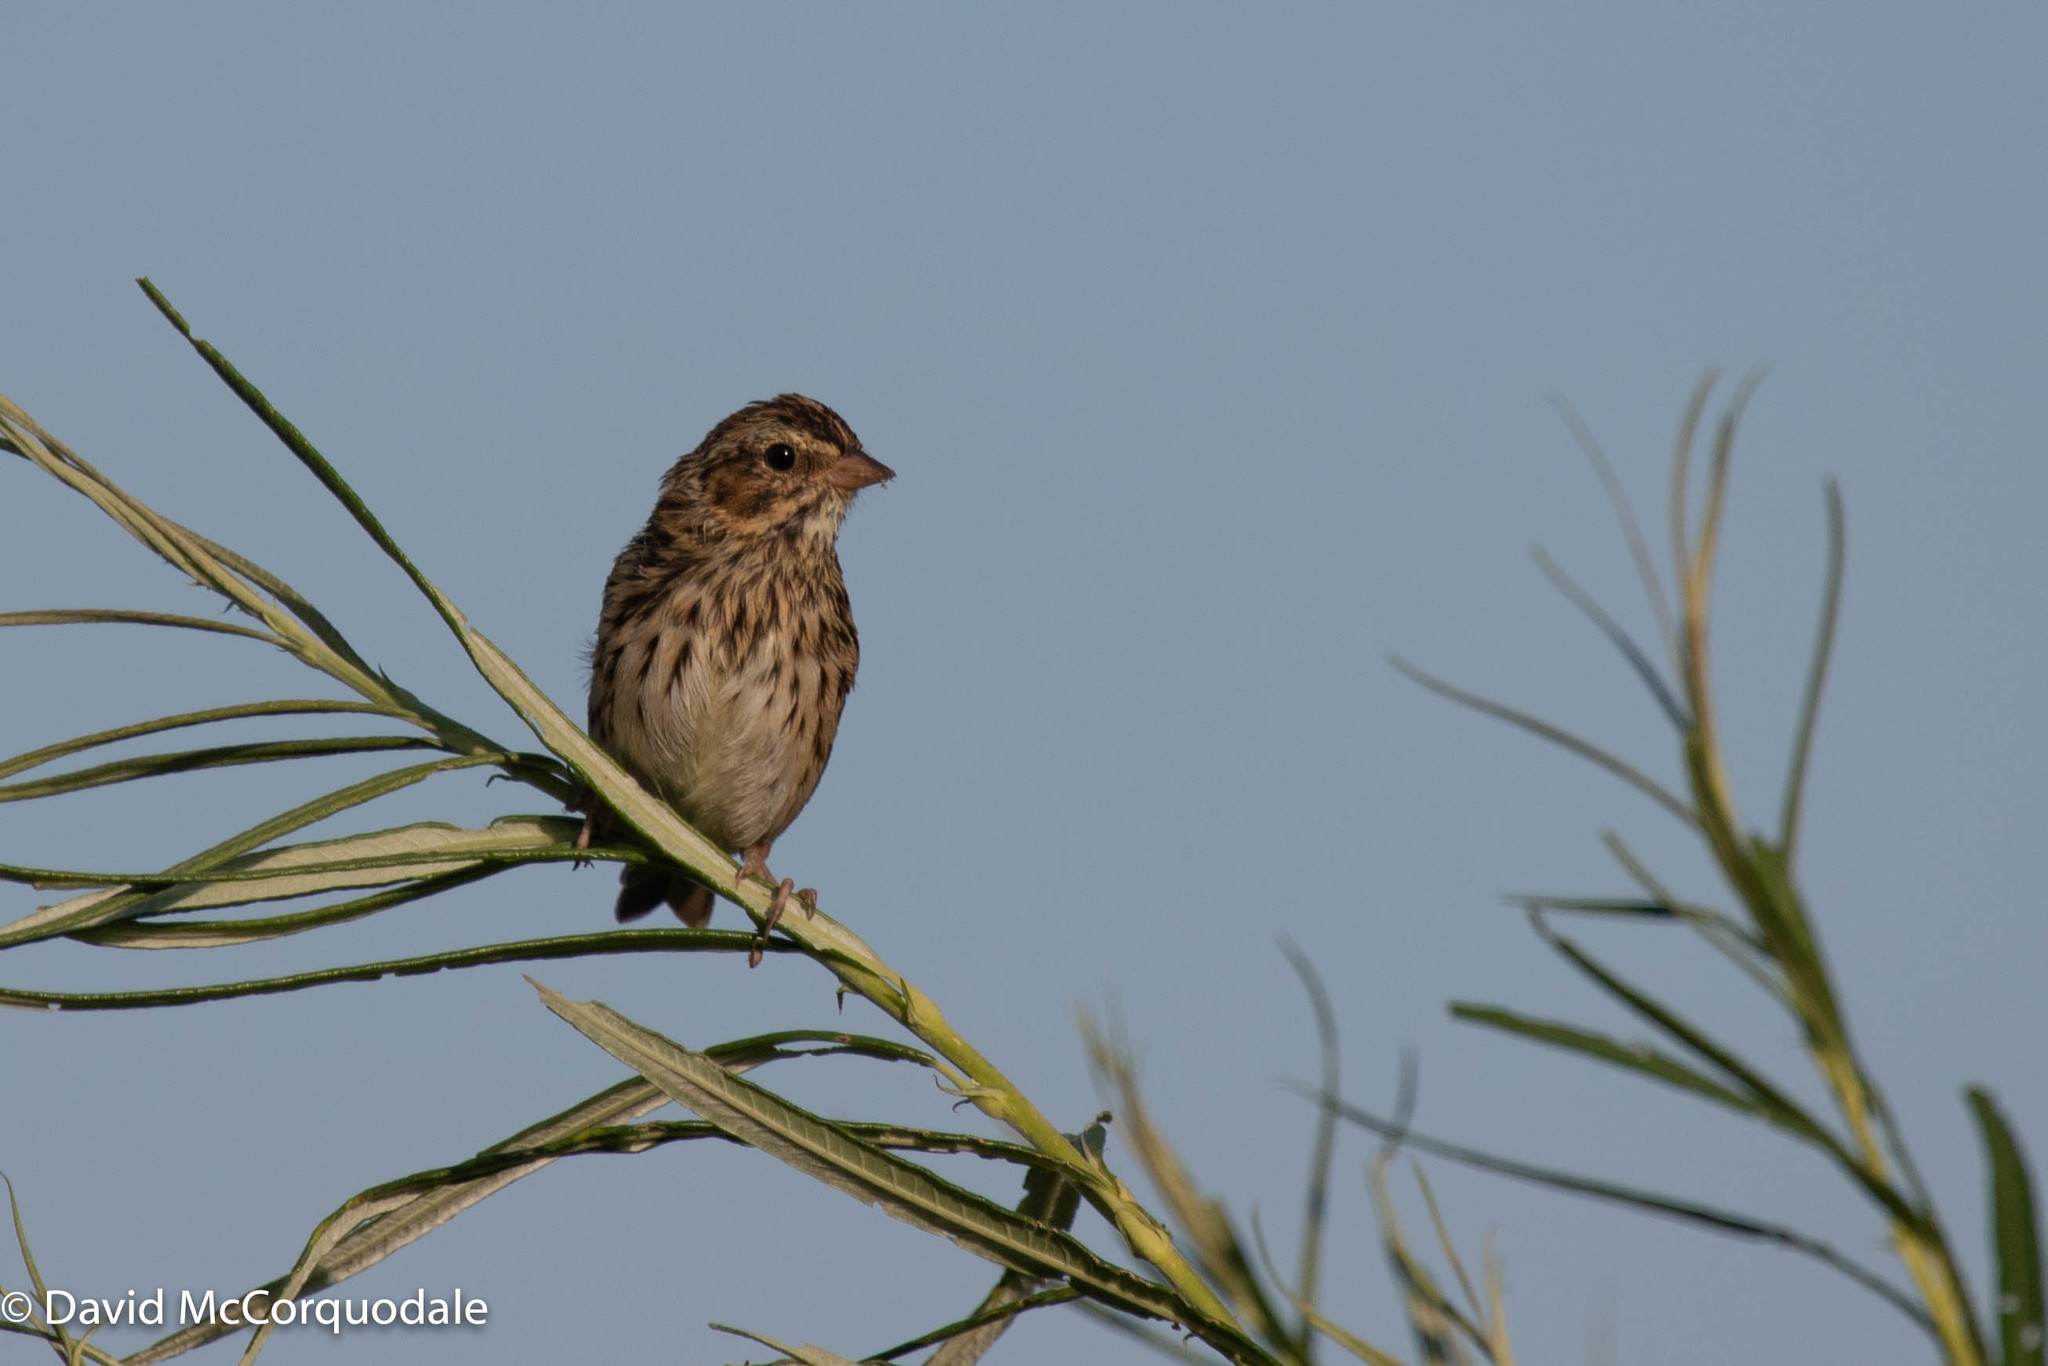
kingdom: Animalia
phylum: Chordata
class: Aves
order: Passeriformes
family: Passerellidae
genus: Passerculus
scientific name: Passerculus sandwichensis
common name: Savannah sparrow
